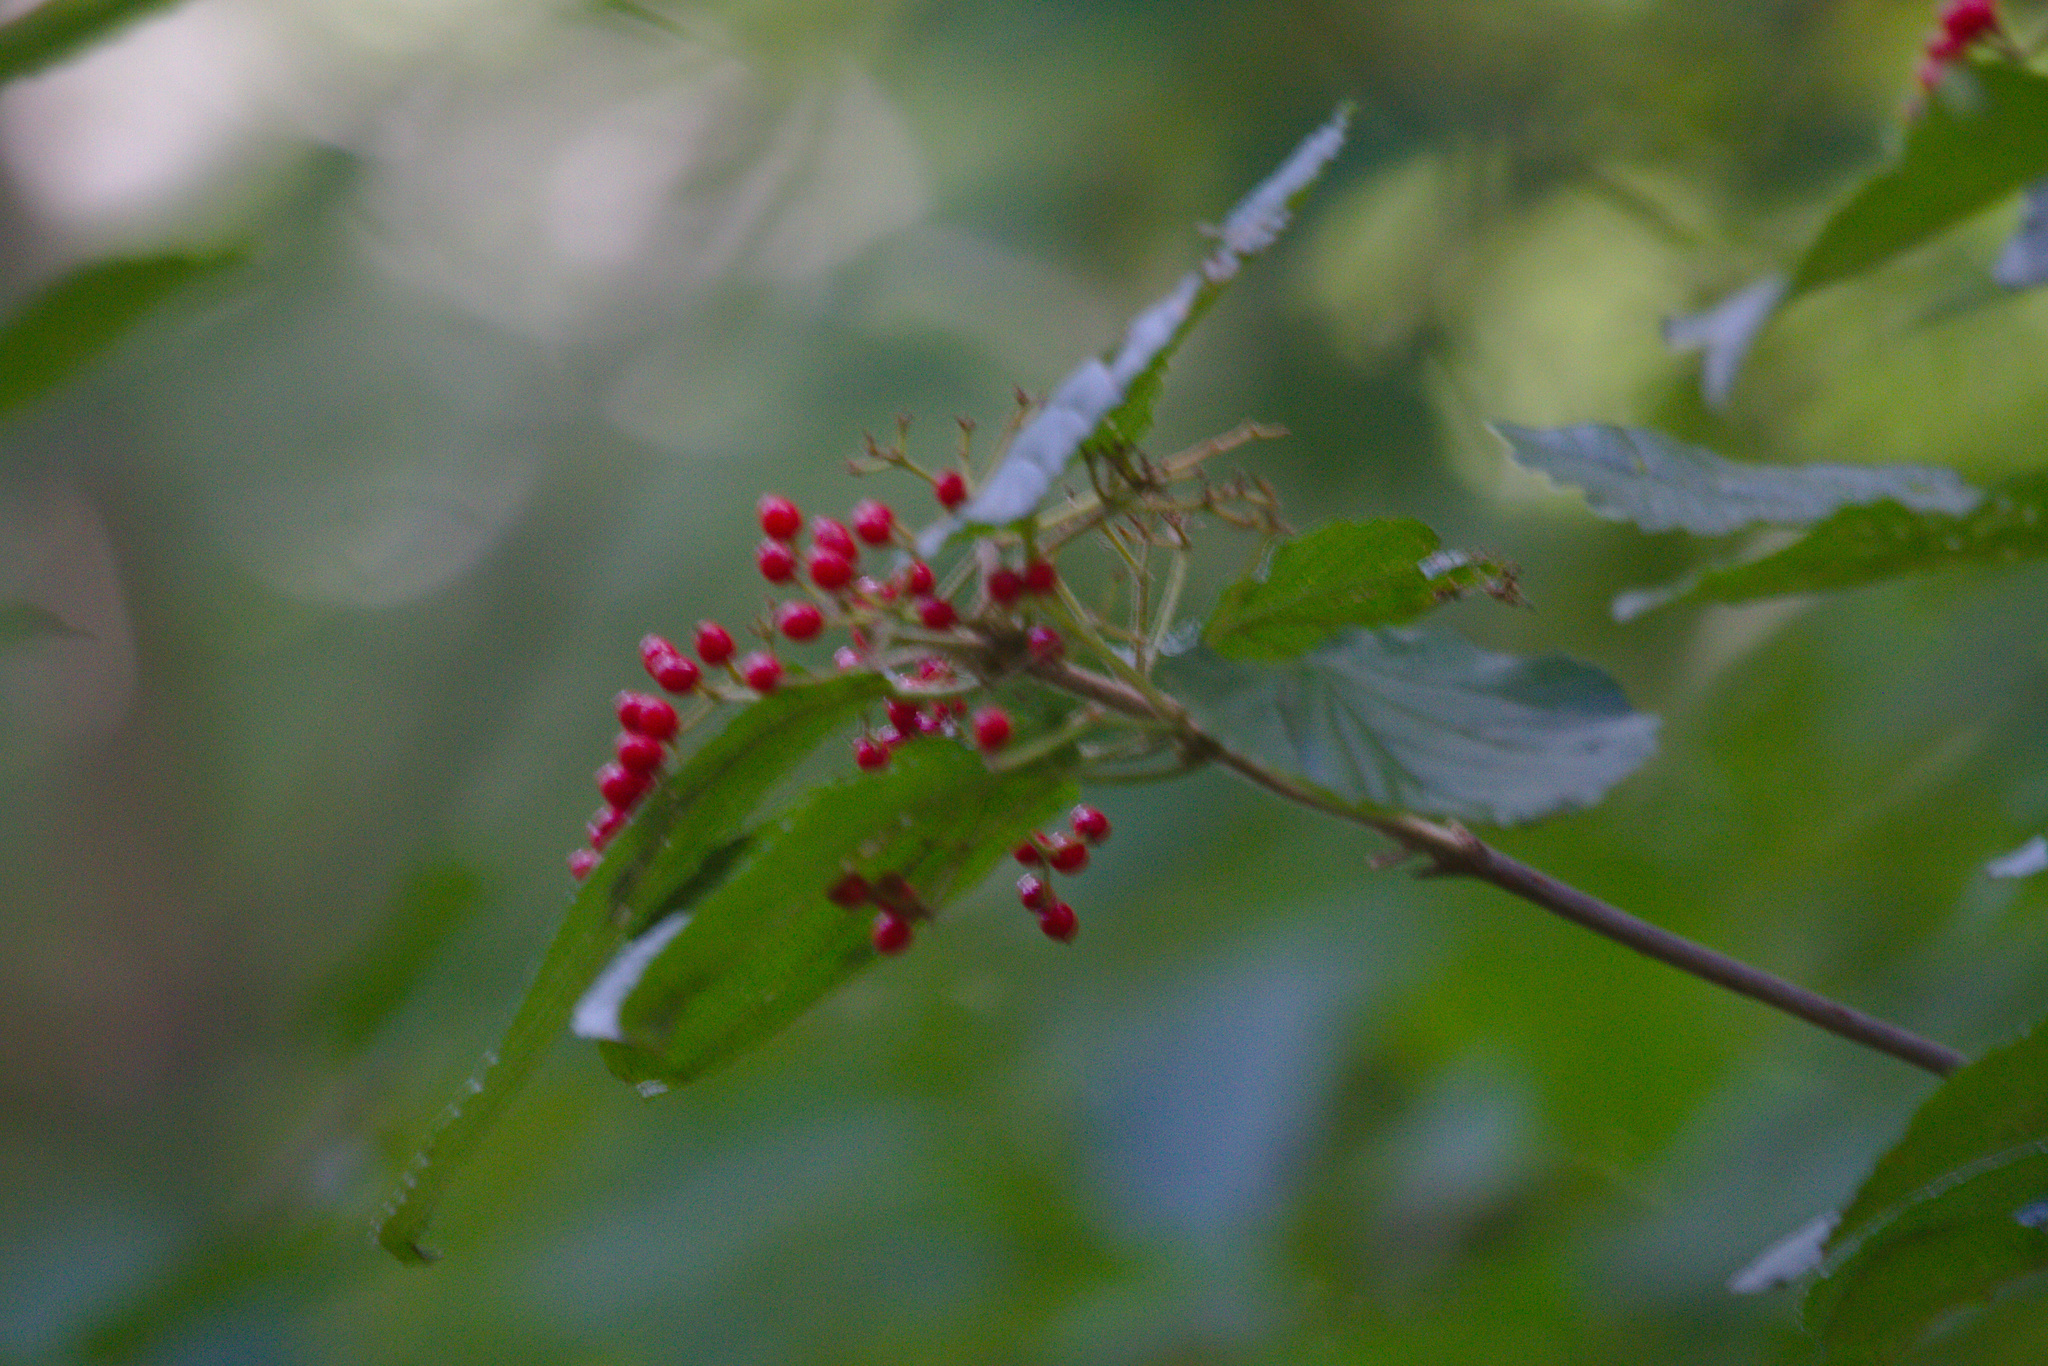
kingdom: Plantae
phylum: Tracheophyta
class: Magnoliopsida
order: Dipsacales
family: Viburnaceae
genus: Viburnum
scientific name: Viburnum dilatatum
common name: Linden arrowwood
